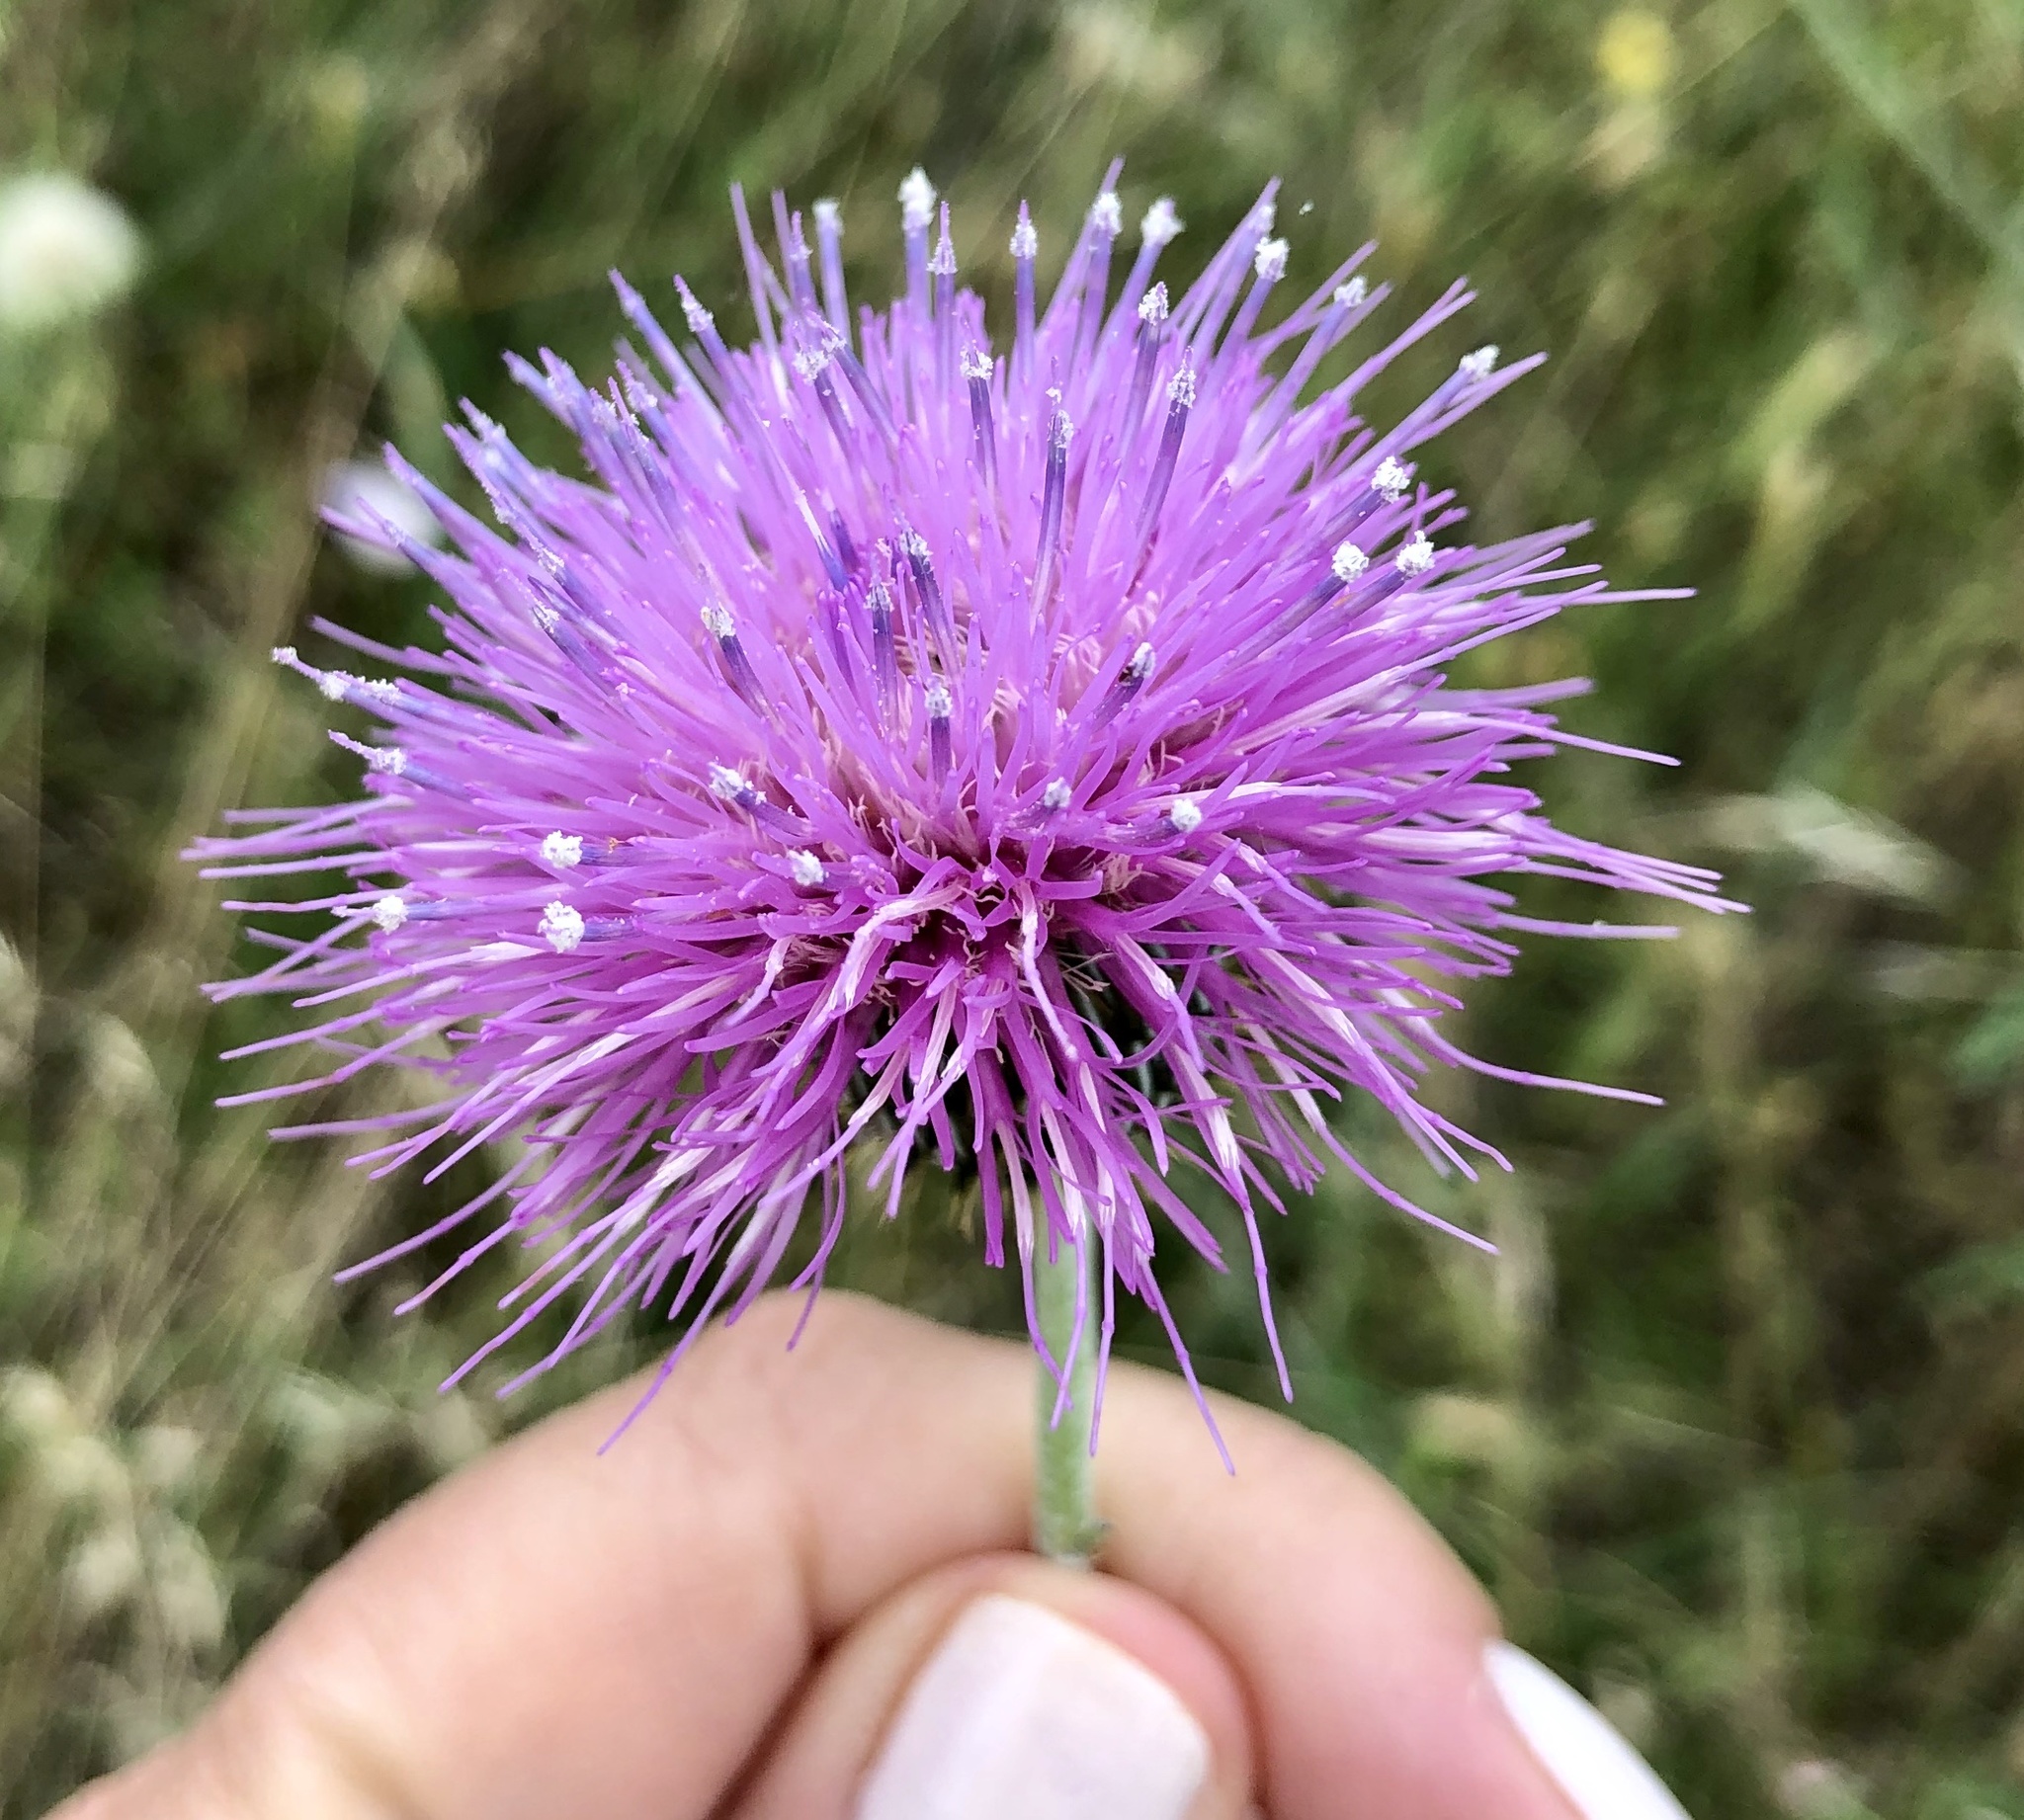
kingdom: Plantae
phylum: Tracheophyta
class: Magnoliopsida
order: Asterales
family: Asteraceae
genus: Cirsium
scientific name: Cirsium texanum
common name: Texas purple thistle
